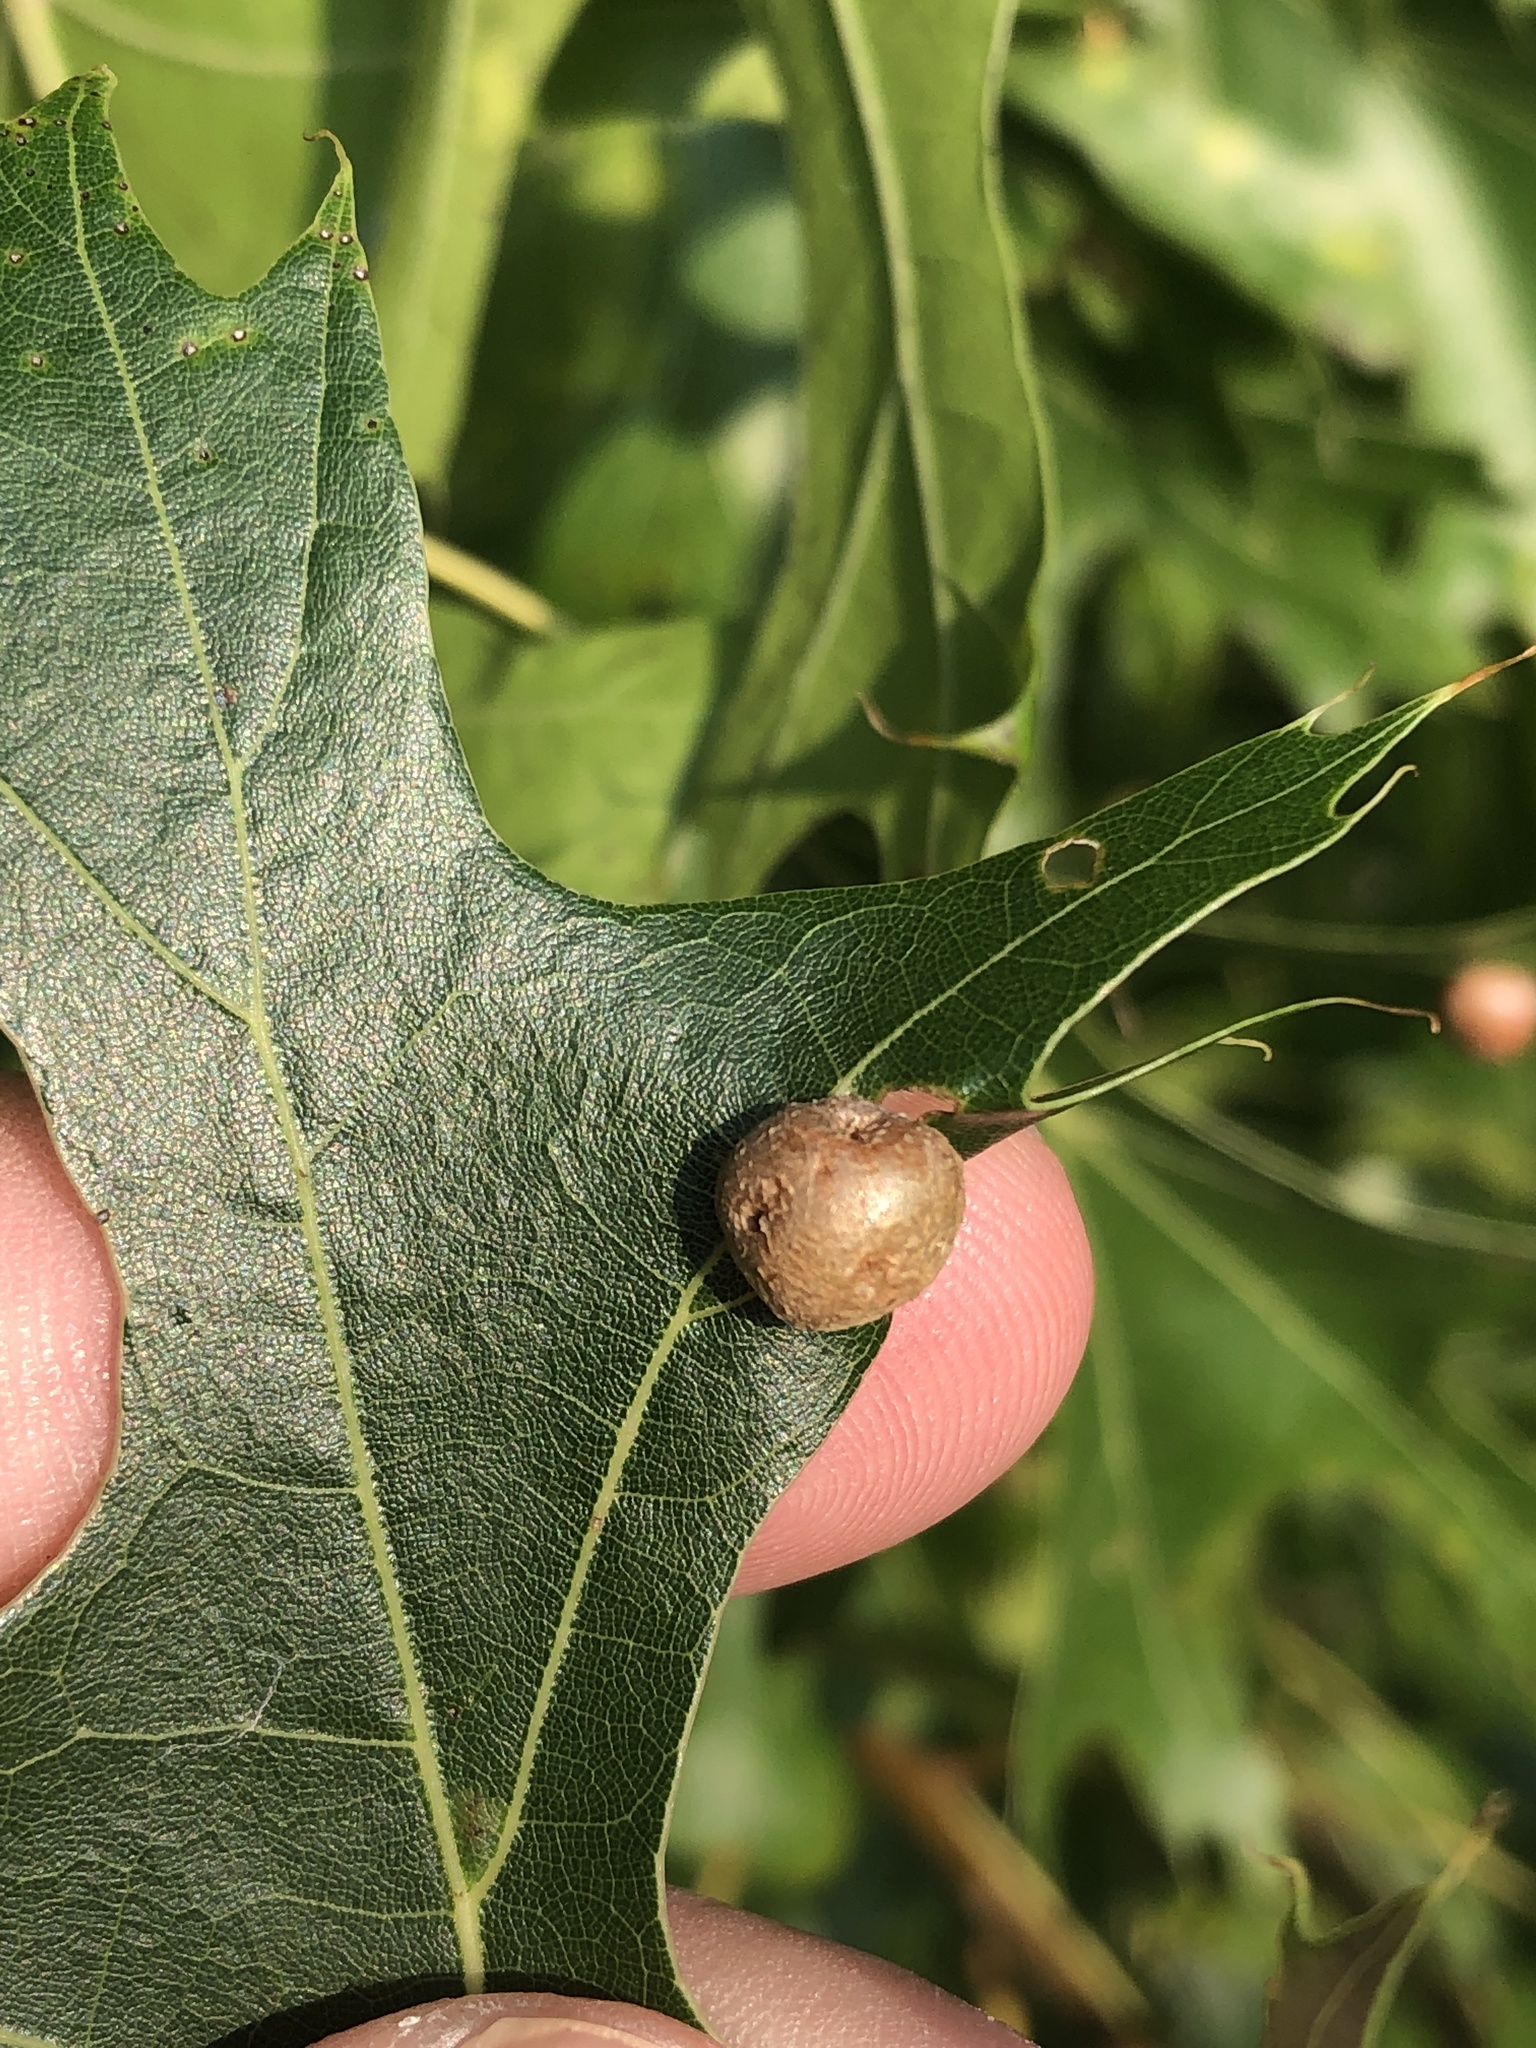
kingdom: Animalia
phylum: Arthropoda
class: Insecta
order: Diptera
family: Cecidomyiidae
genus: Polystepha
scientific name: Polystepha pilulae
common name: Oak leaf gall midge
